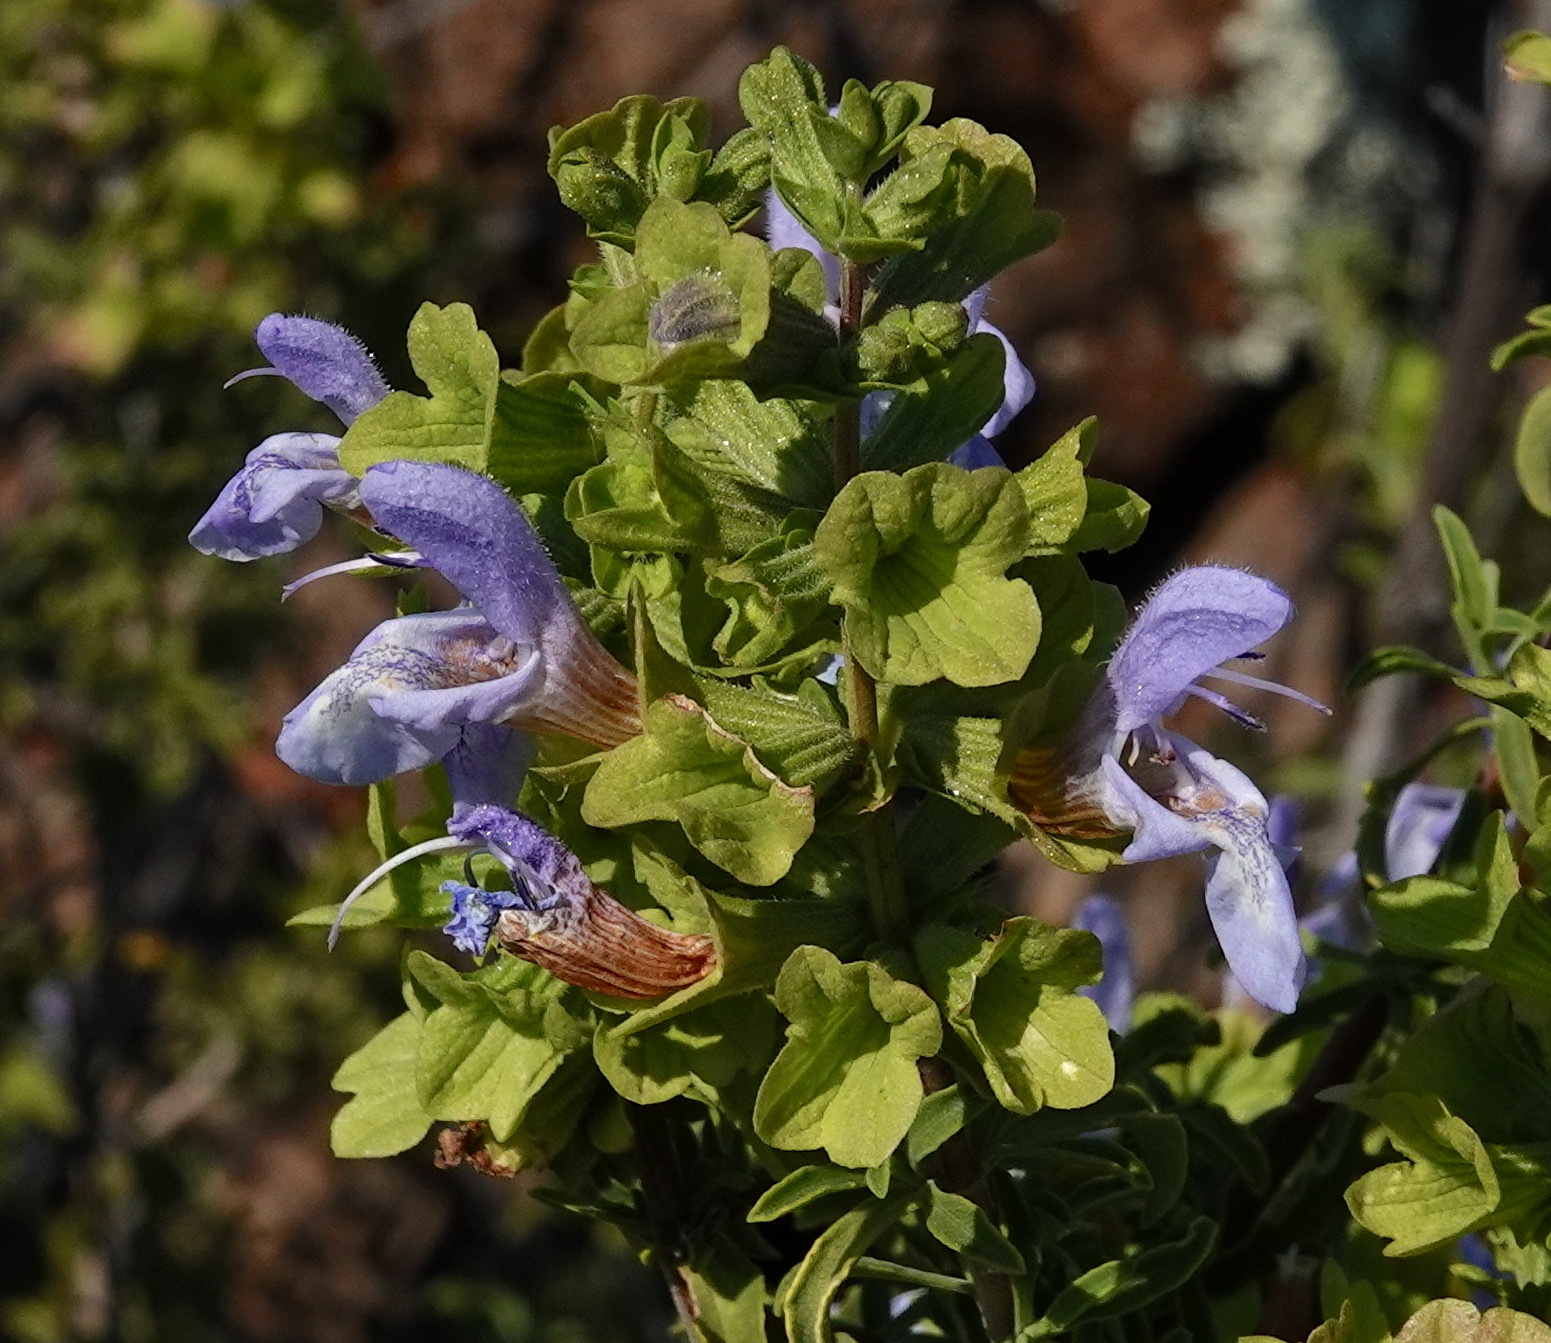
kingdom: Plantae
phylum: Tracheophyta
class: Magnoliopsida
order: Lamiales
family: Lamiaceae
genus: Salvia
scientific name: Salvia dentata
